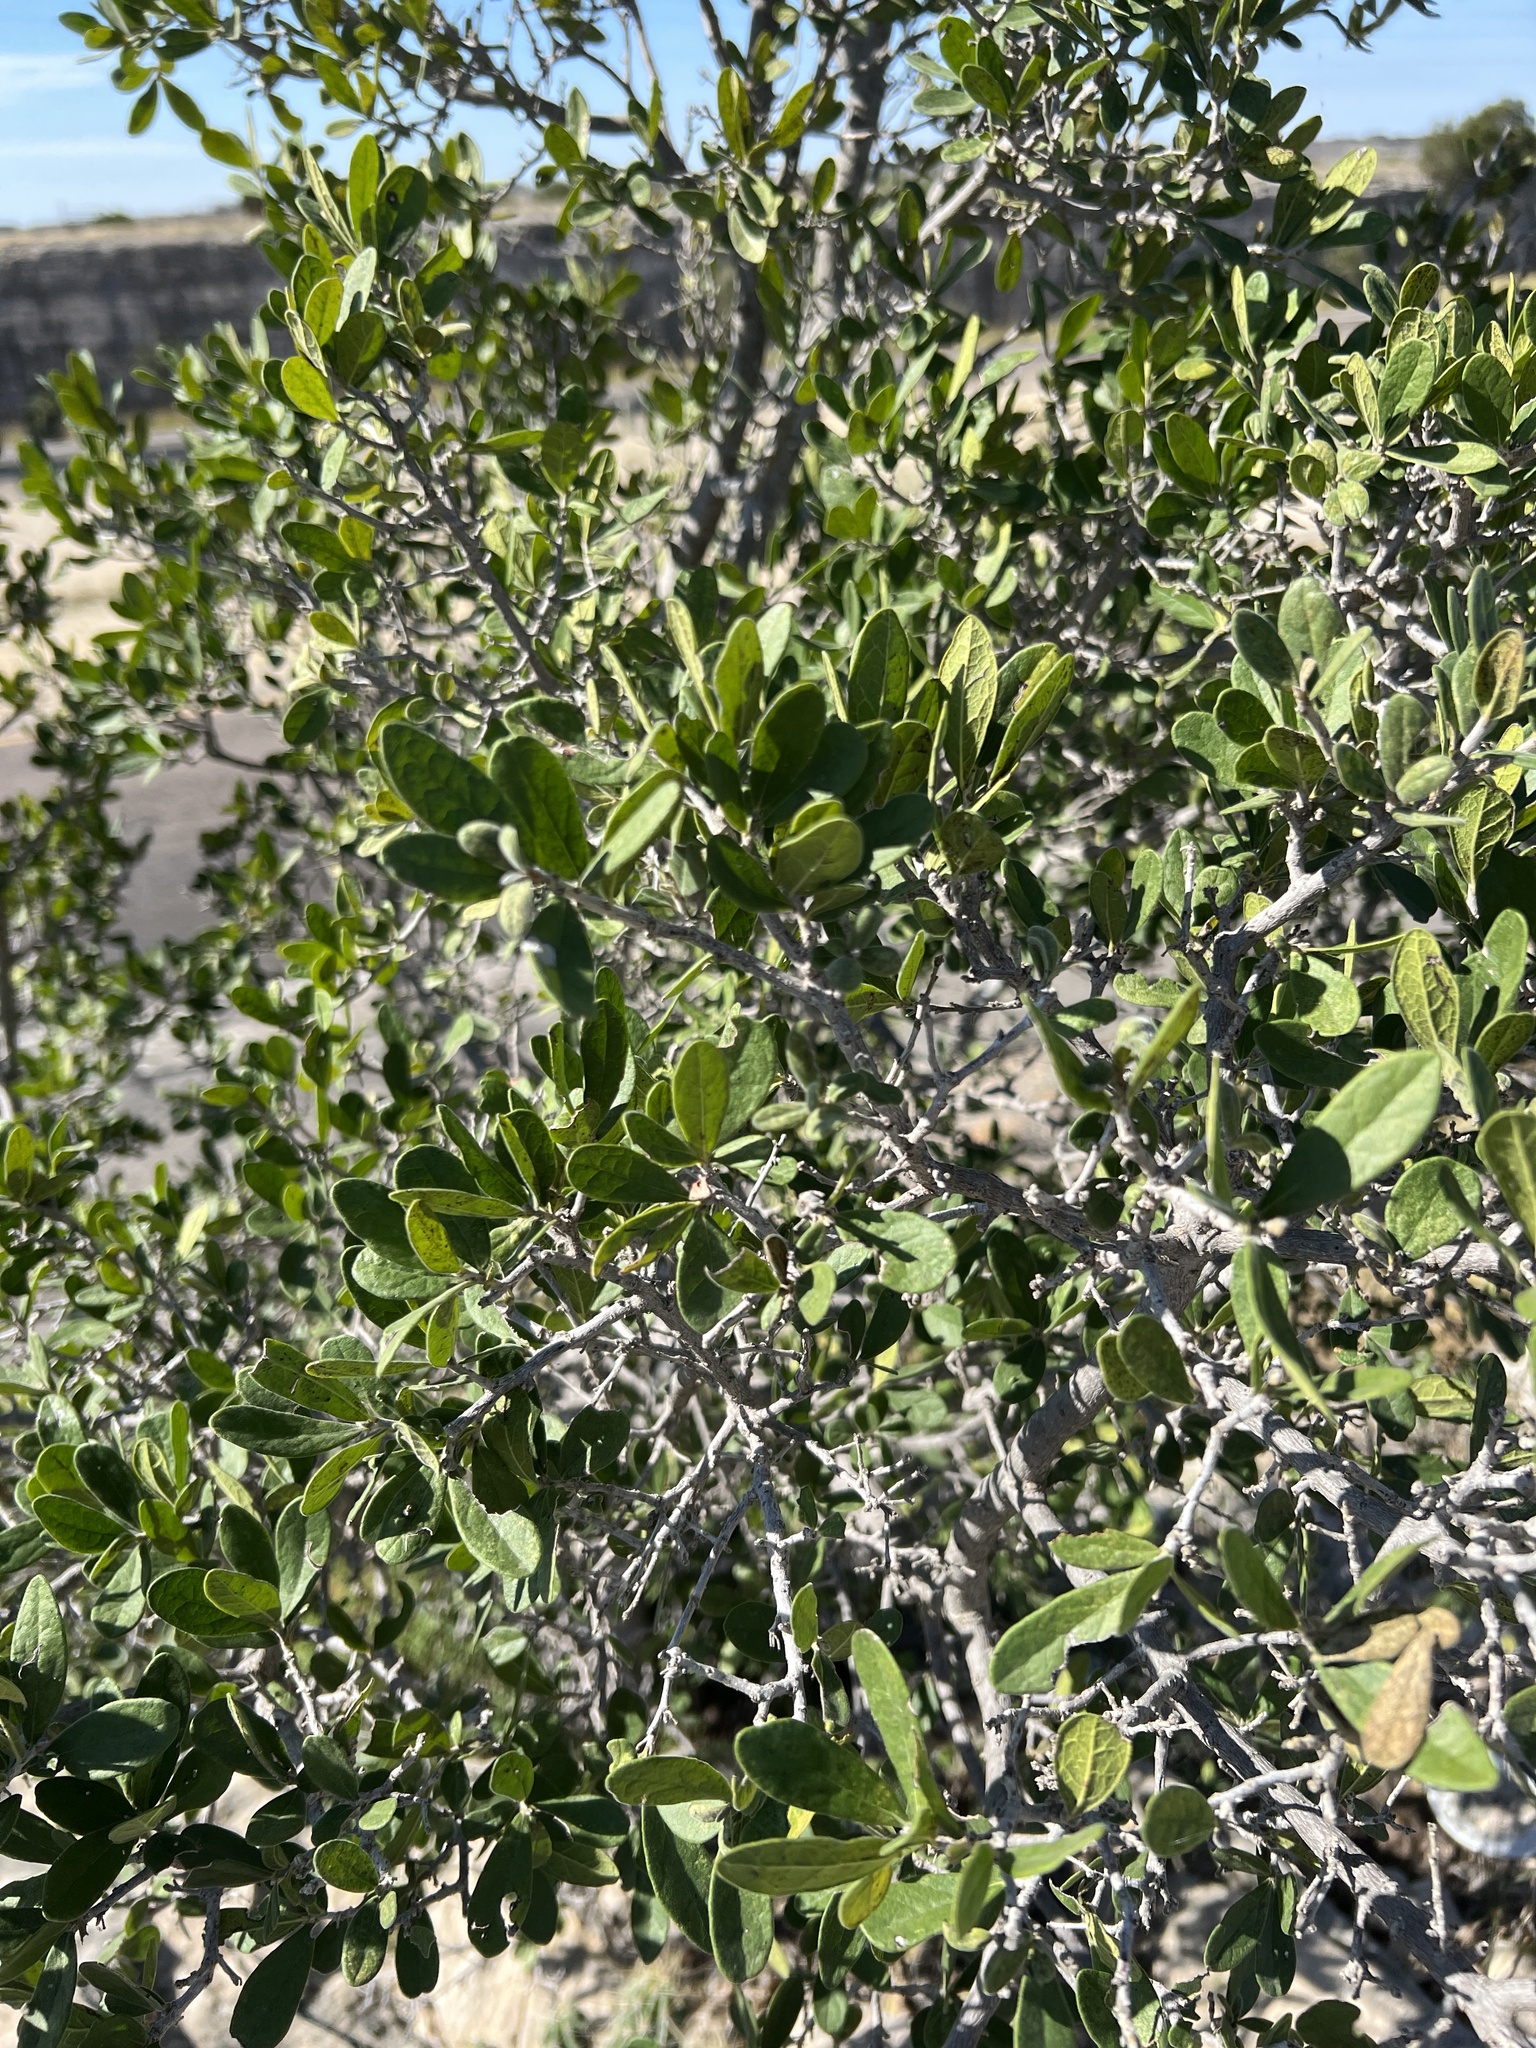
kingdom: Plantae
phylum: Tracheophyta
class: Magnoliopsida
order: Ericales
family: Ebenaceae
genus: Diospyros
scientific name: Diospyros texana
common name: Texas persimmon
